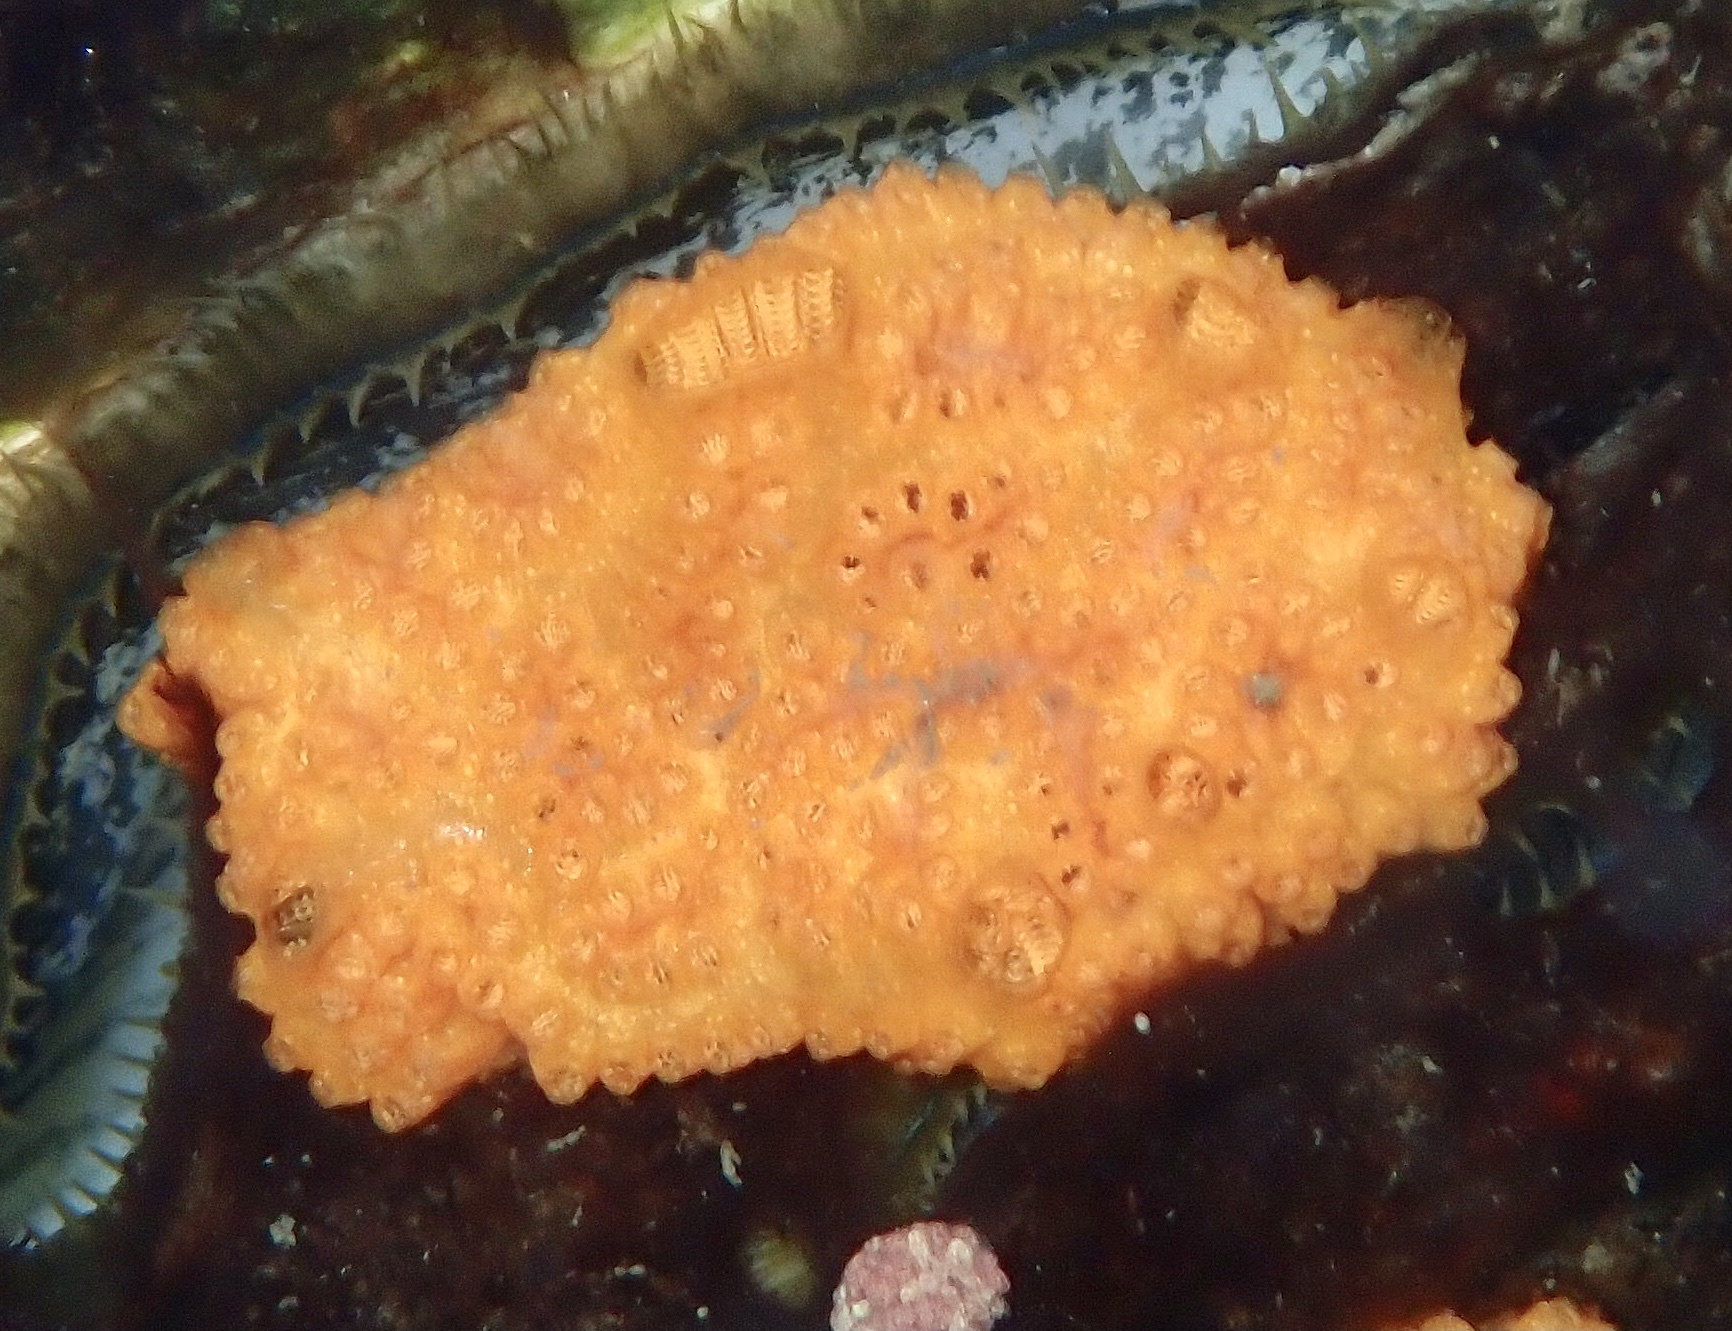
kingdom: Animalia
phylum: Chordata
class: Ascidiacea
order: Stolidobranchia
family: Styelidae
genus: Botrylloides
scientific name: Botrylloides violaceus
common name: Colonial sea squirt
